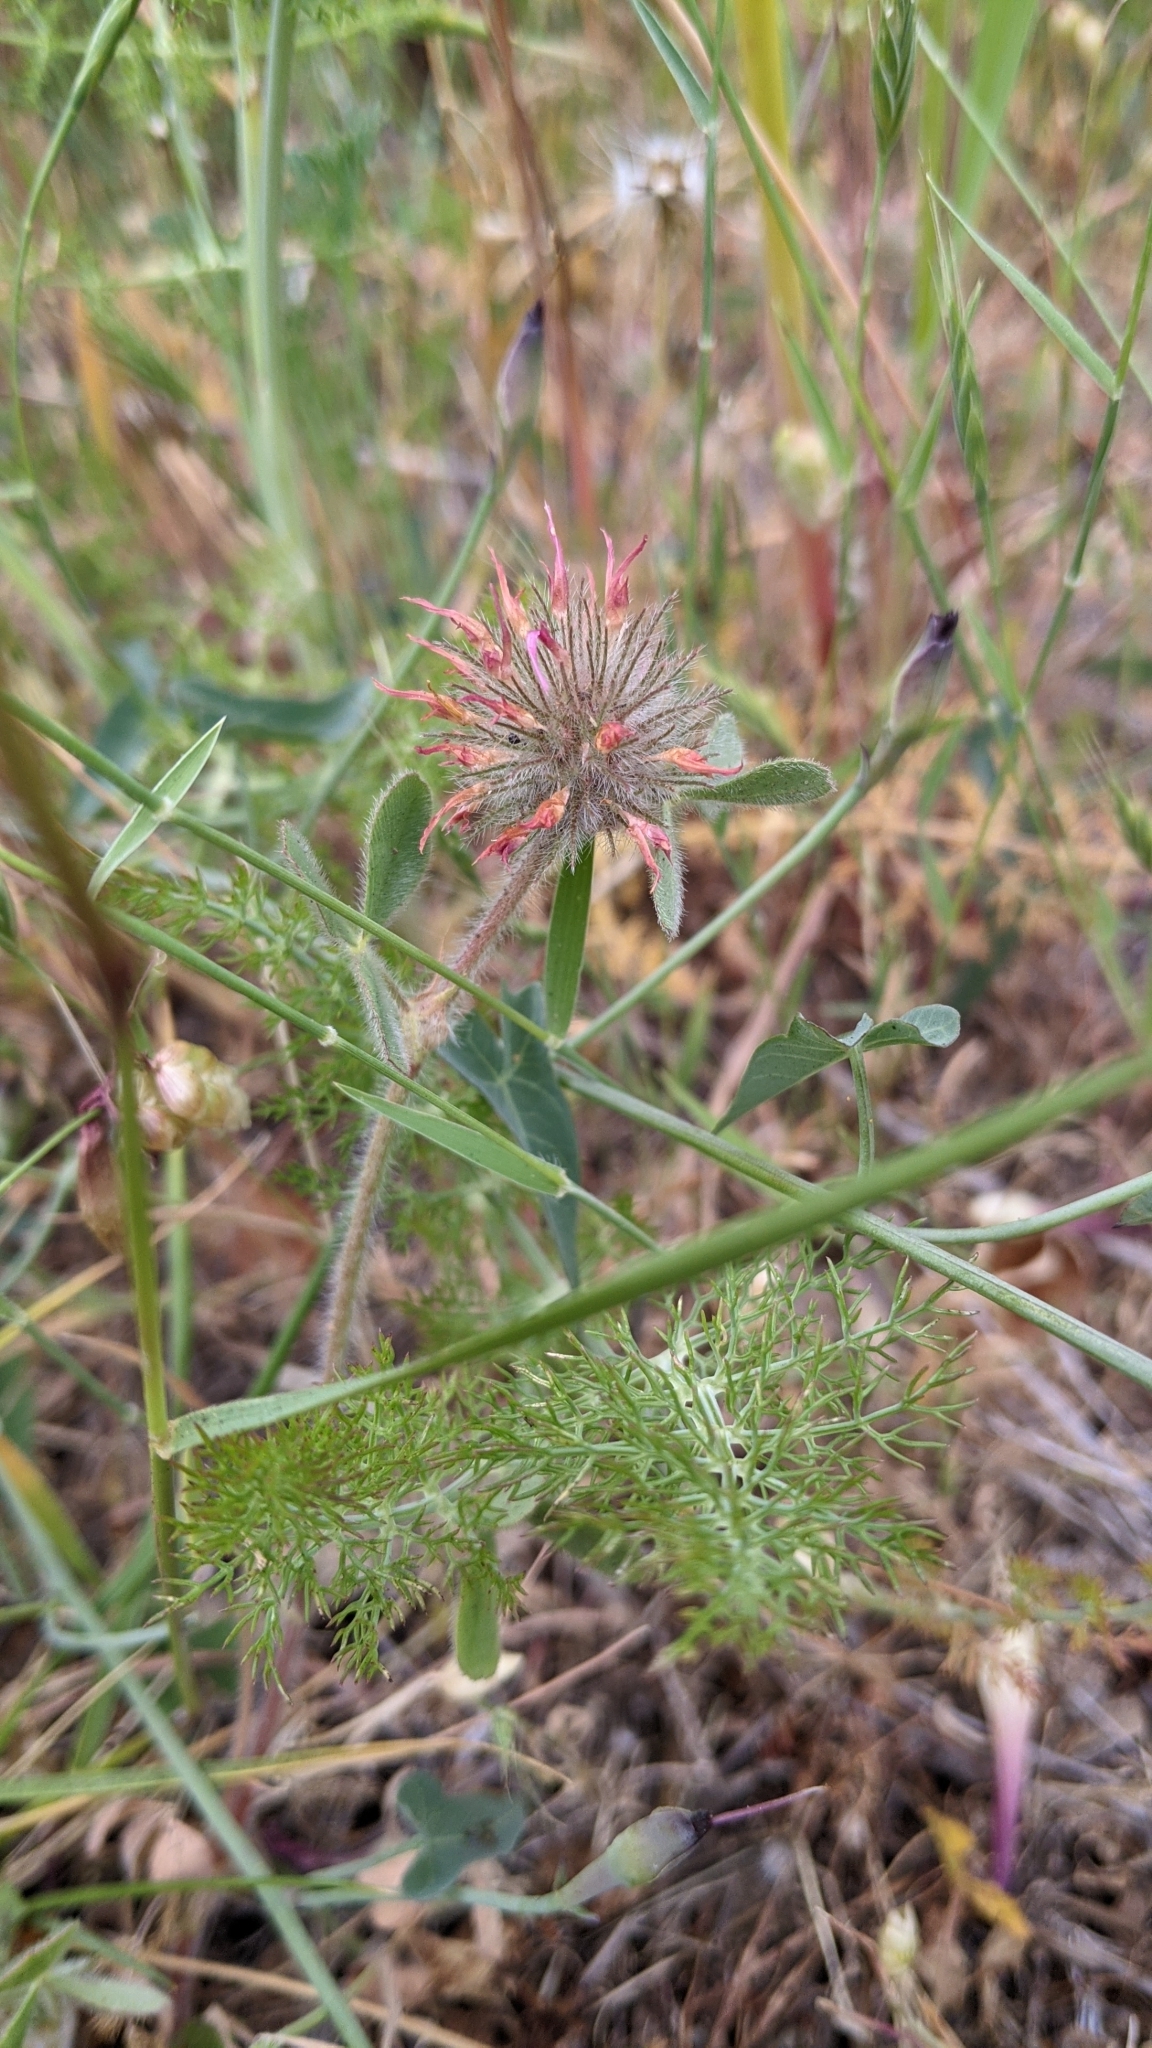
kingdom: Plantae
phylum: Tracheophyta
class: Magnoliopsida
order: Fabales
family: Fabaceae
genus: Trifolium
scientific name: Trifolium hirtum
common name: Rose clover
